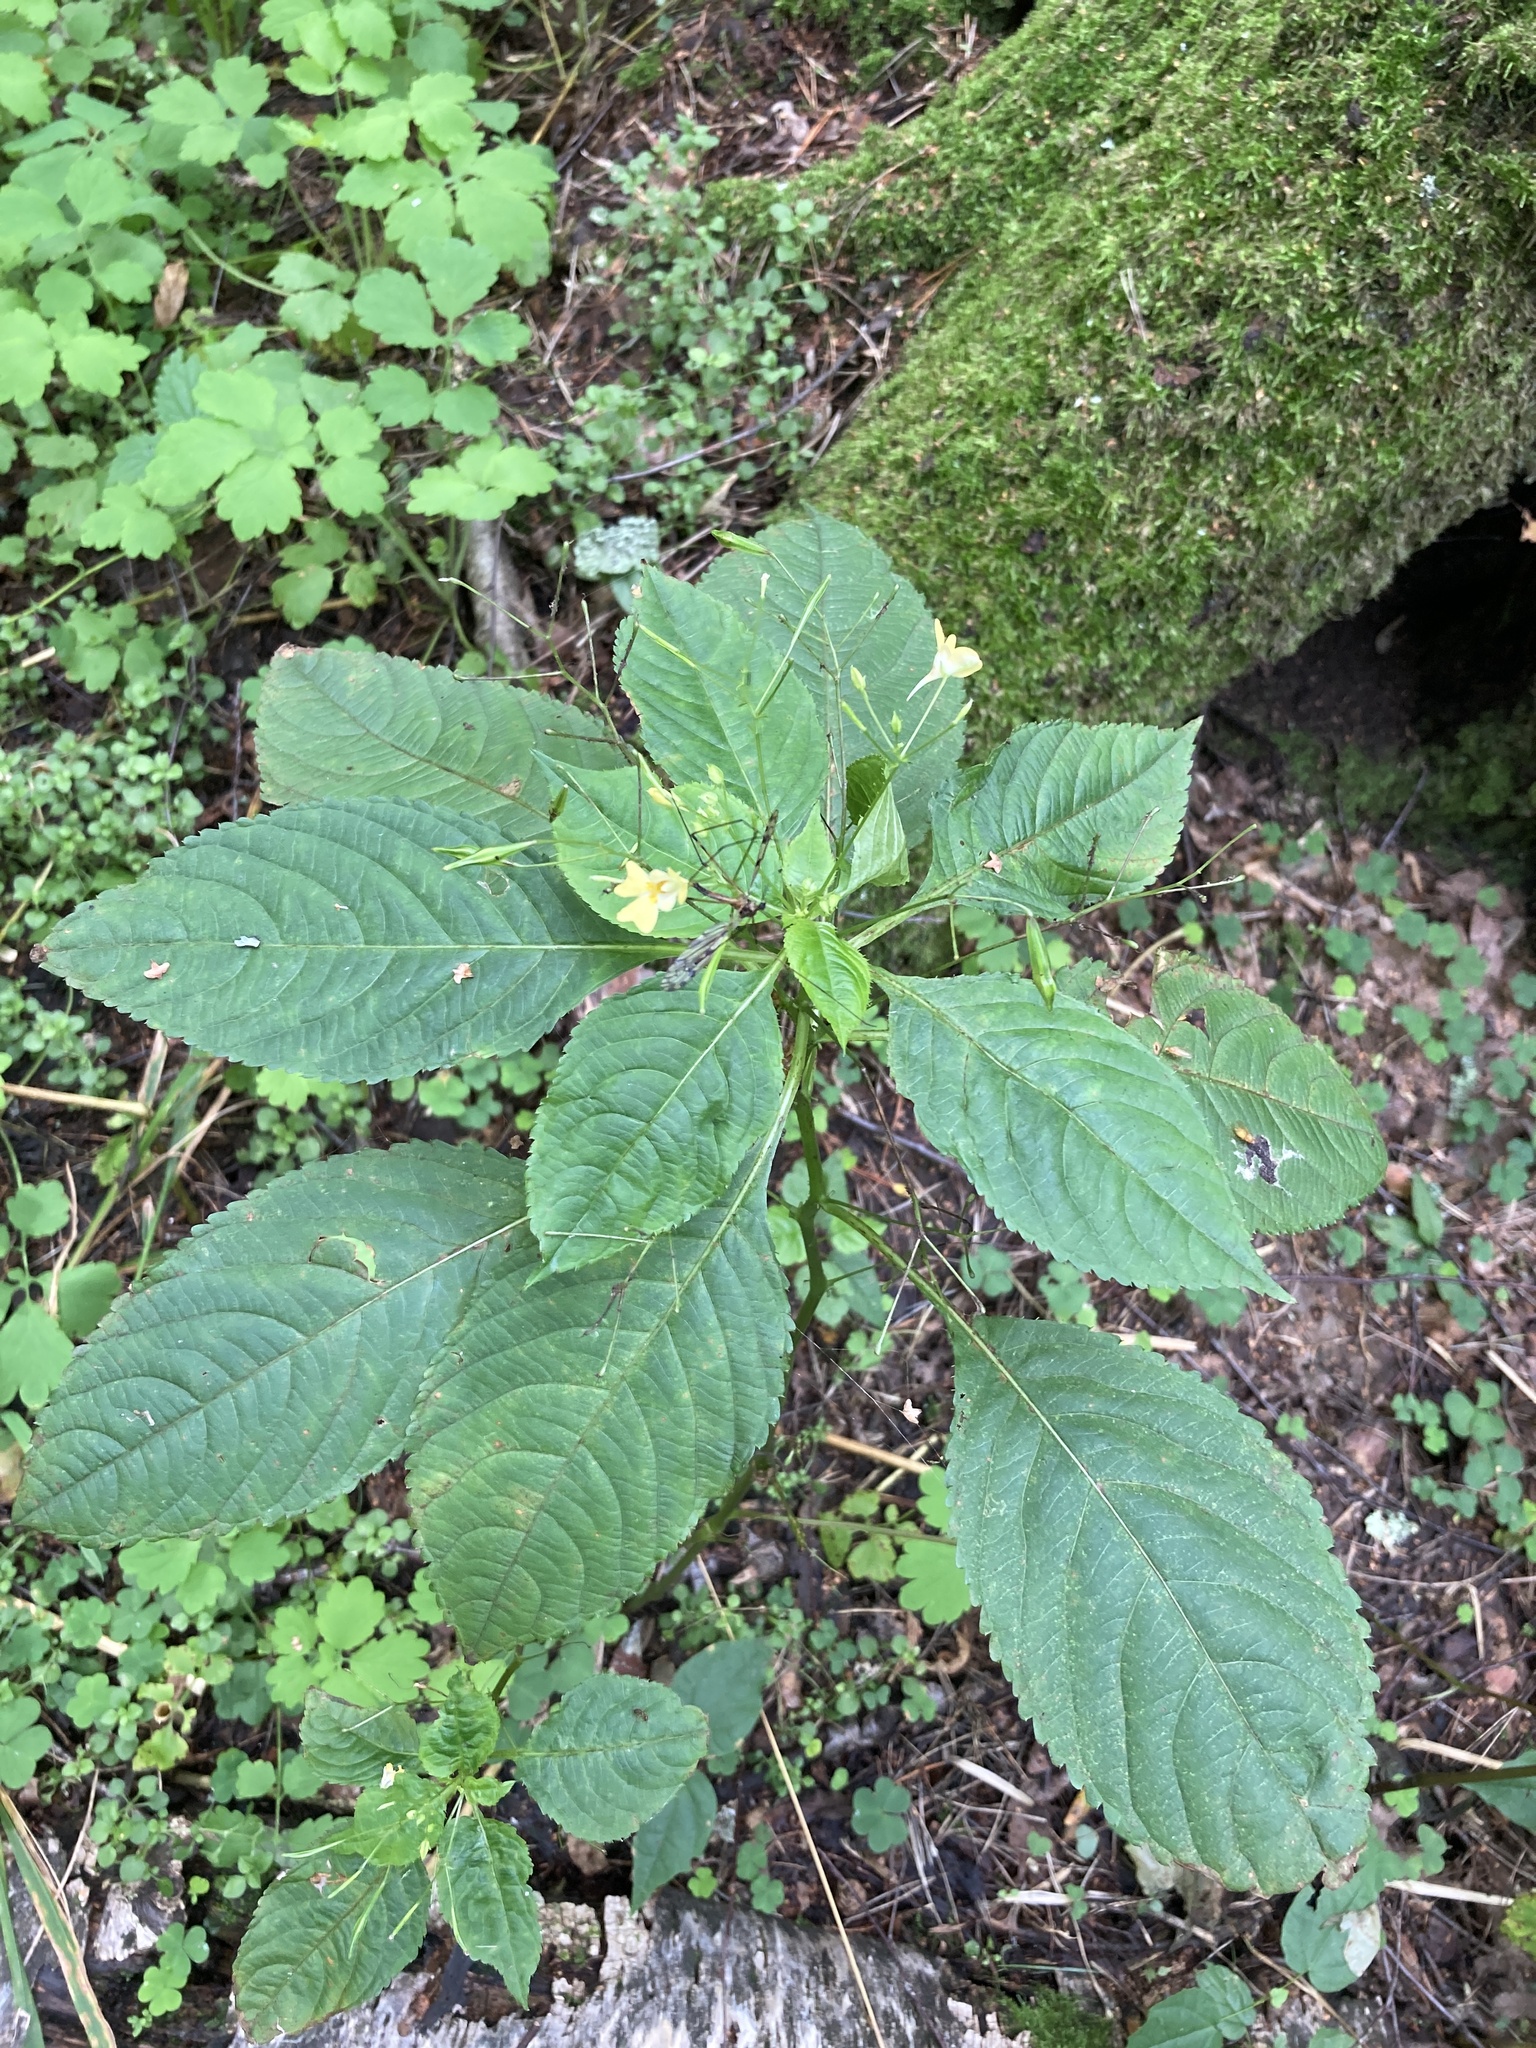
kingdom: Plantae
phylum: Tracheophyta
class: Magnoliopsida
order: Ericales
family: Balsaminaceae
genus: Impatiens
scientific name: Impatiens parviflora
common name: Small balsam
